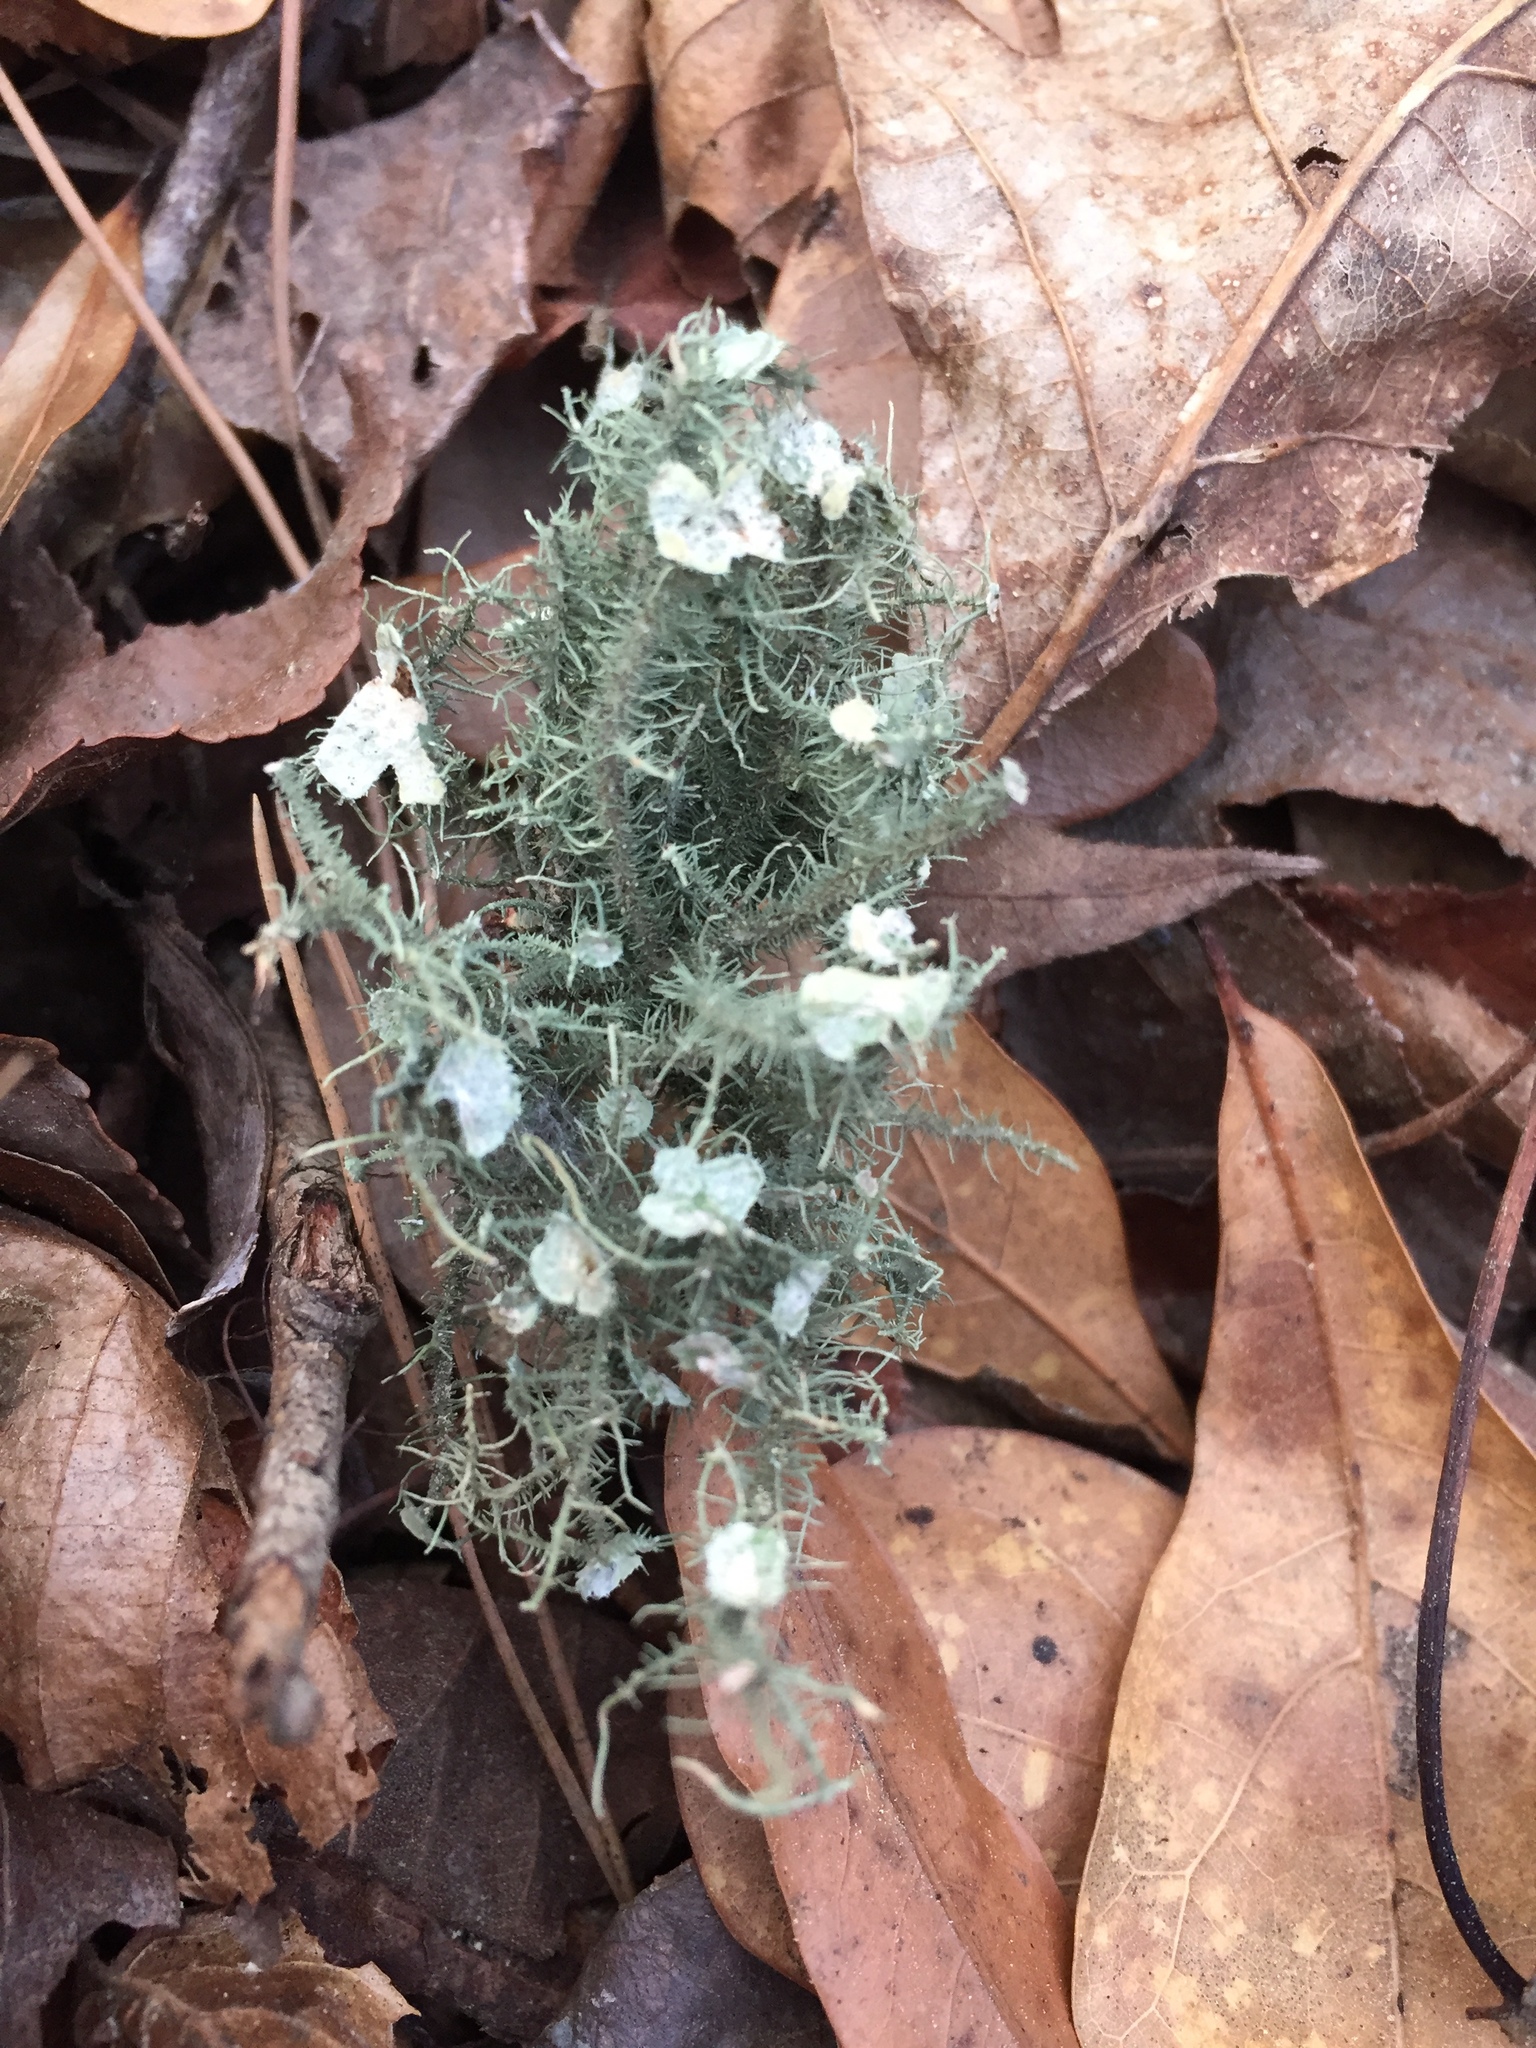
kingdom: Fungi
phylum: Ascomycota
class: Lecanoromycetes
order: Lecanorales
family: Parmeliaceae
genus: Usnea
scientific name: Usnea strigosa
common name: Bushy beard lichen
